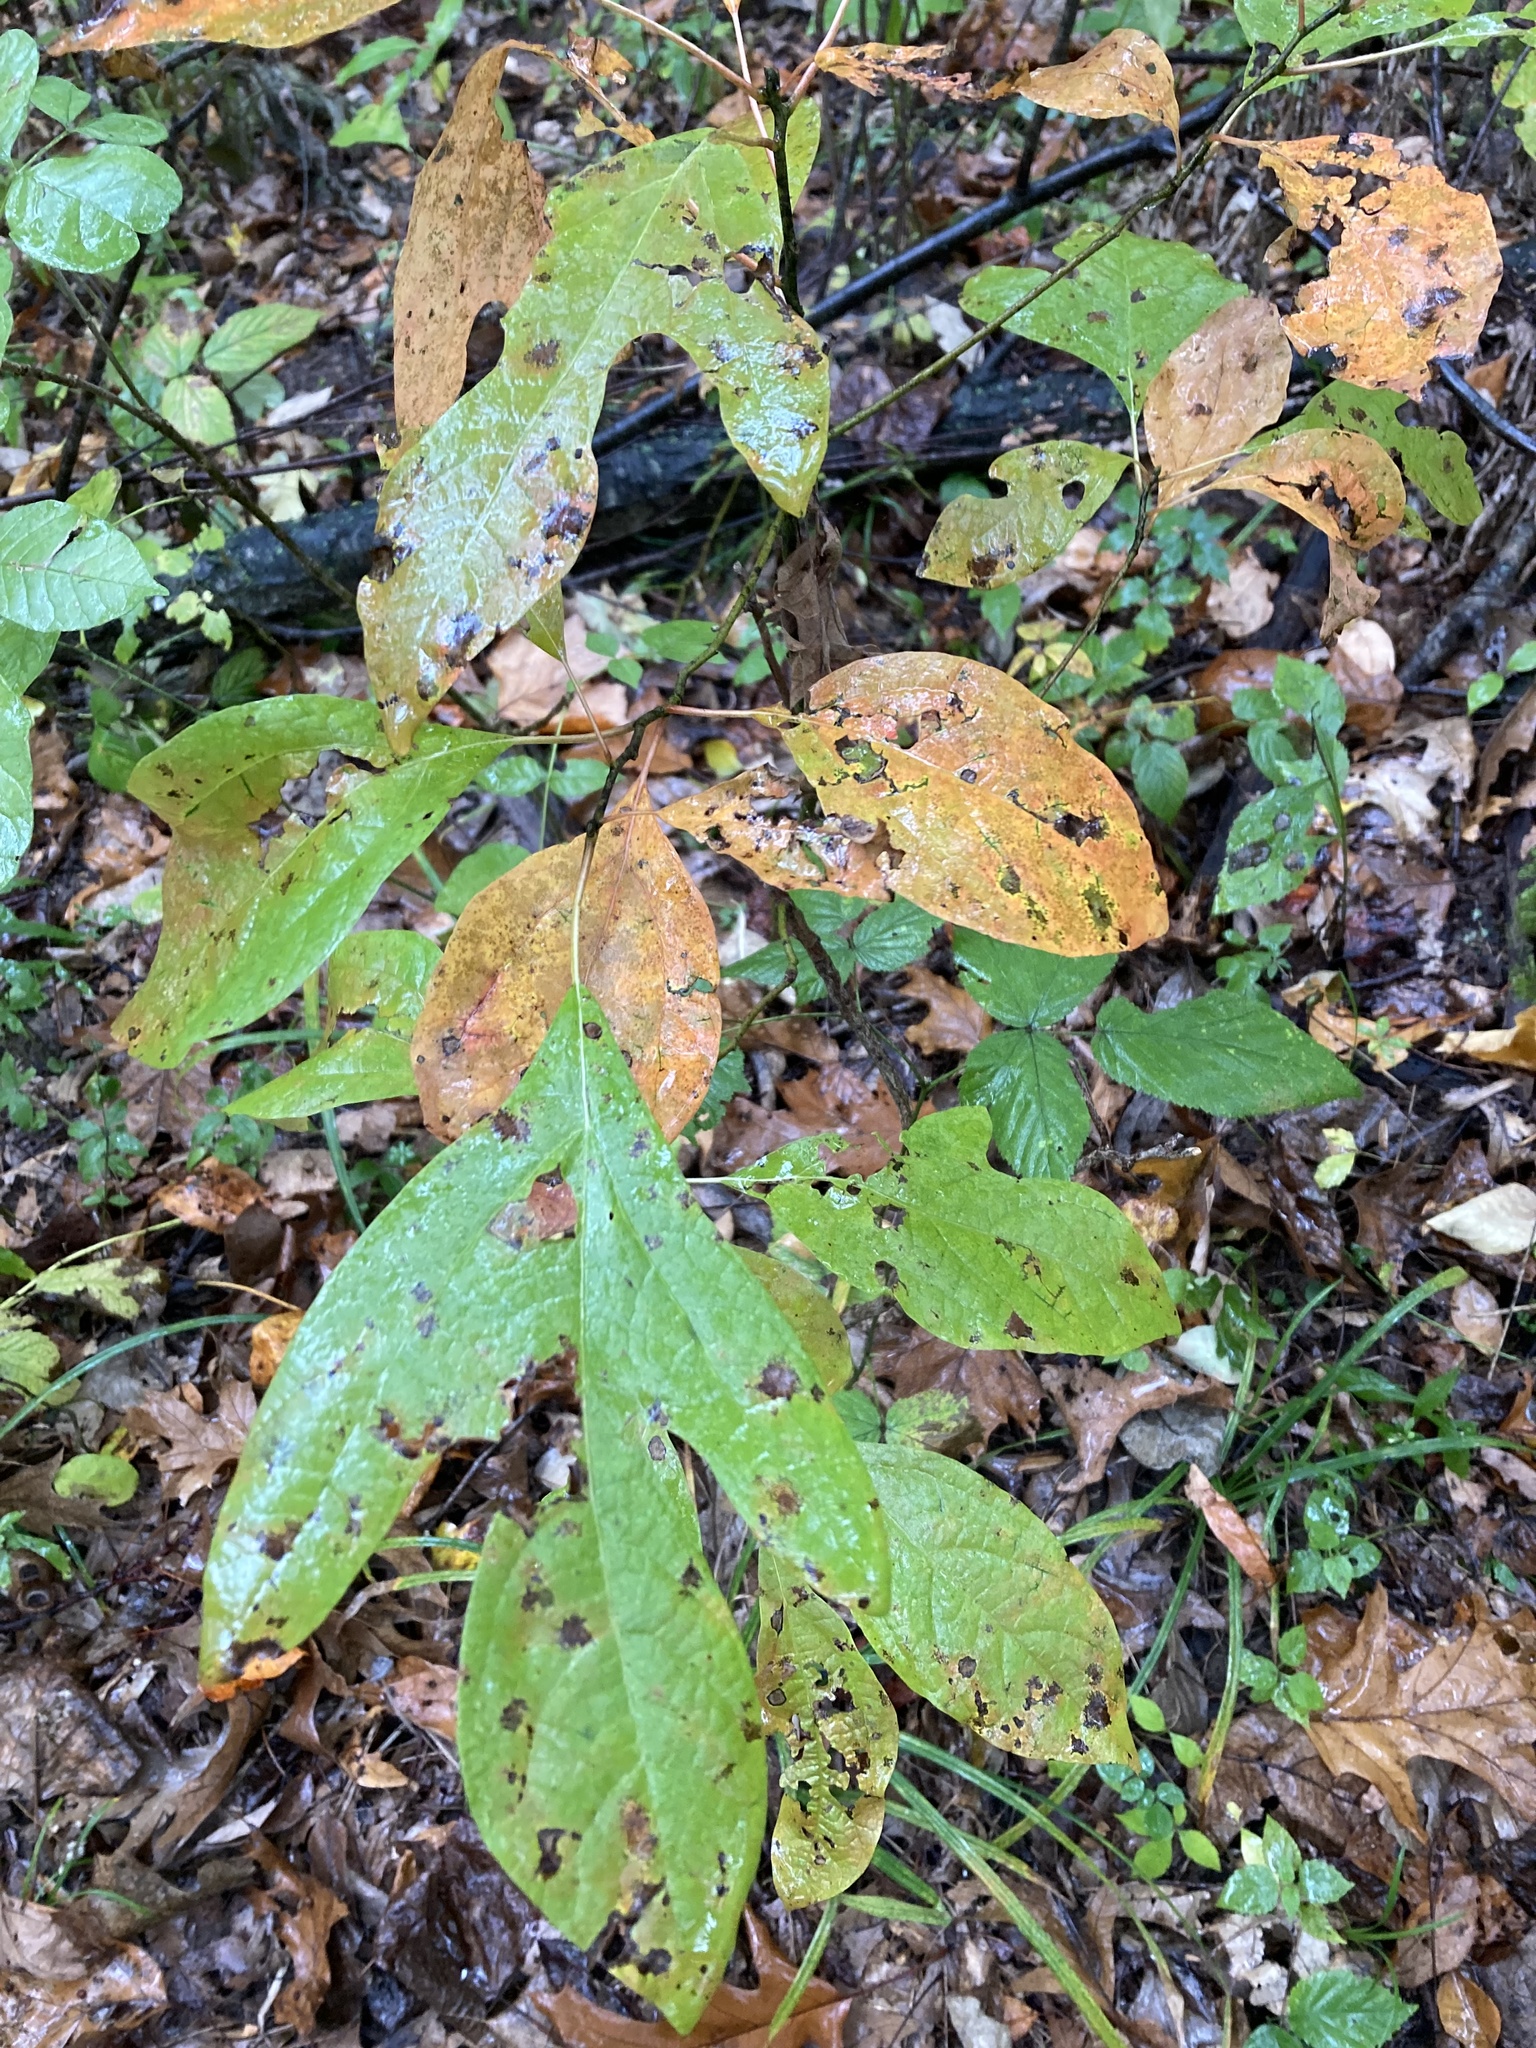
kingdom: Plantae
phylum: Tracheophyta
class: Magnoliopsida
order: Laurales
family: Lauraceae
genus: Sassafras
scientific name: Sassafras albidum
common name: Sassafras
